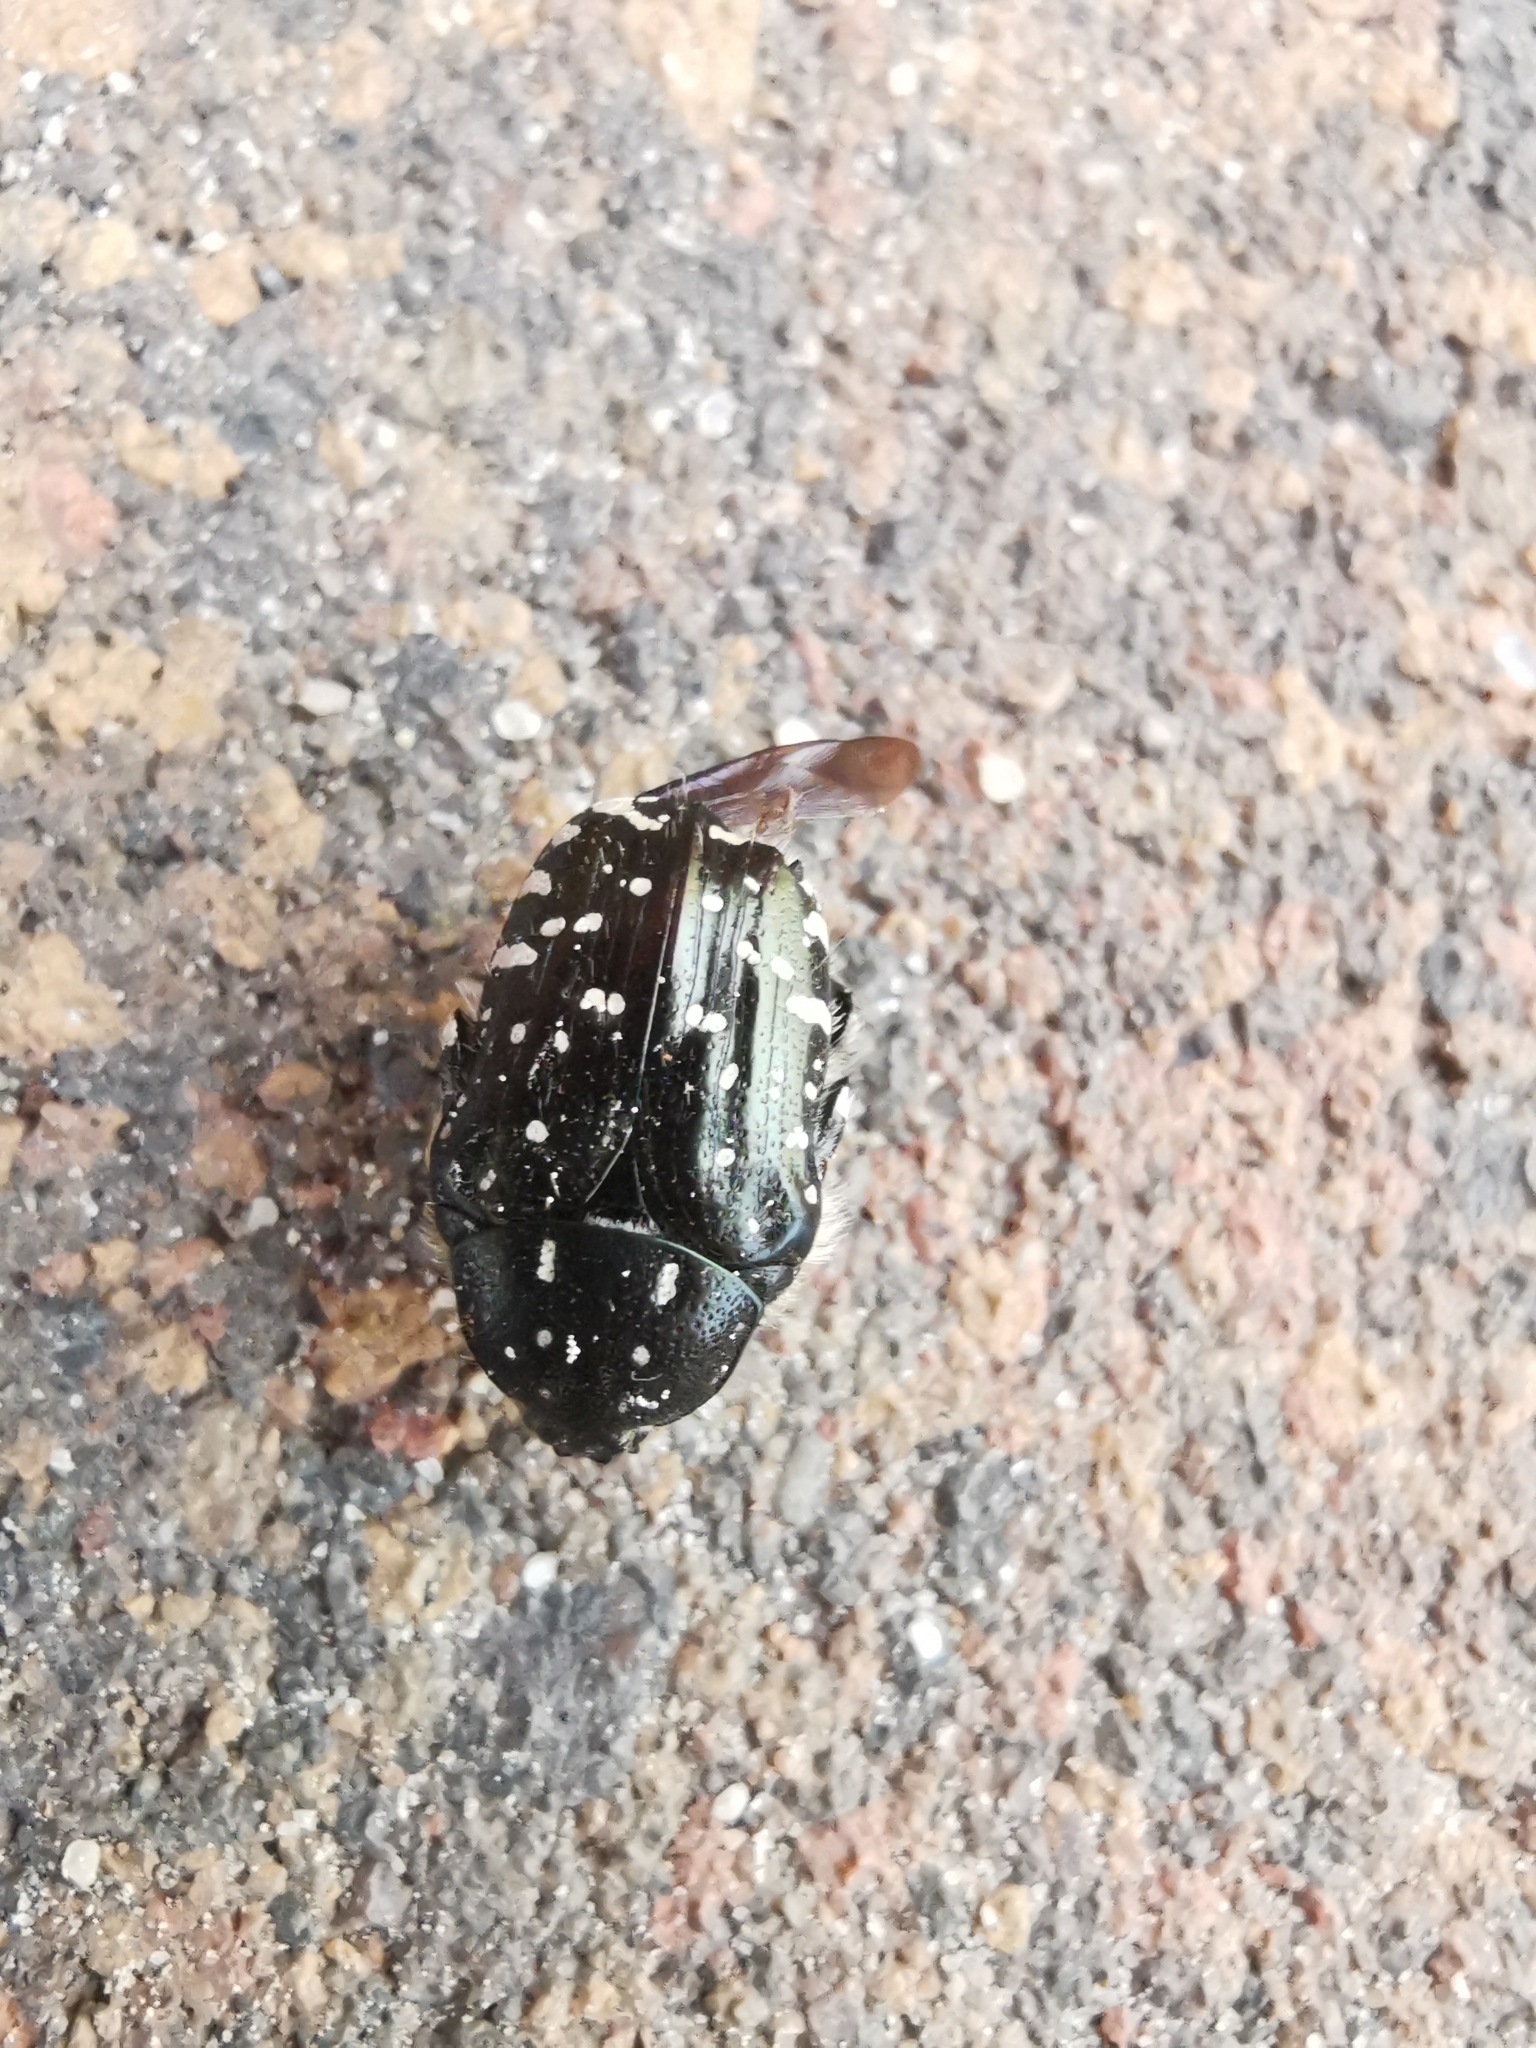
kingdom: Animalia
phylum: Arthropoda
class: Insecta
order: Coleoptera
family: Scarabaeidae
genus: Oxythyrea
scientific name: Oxythyrea funesta
